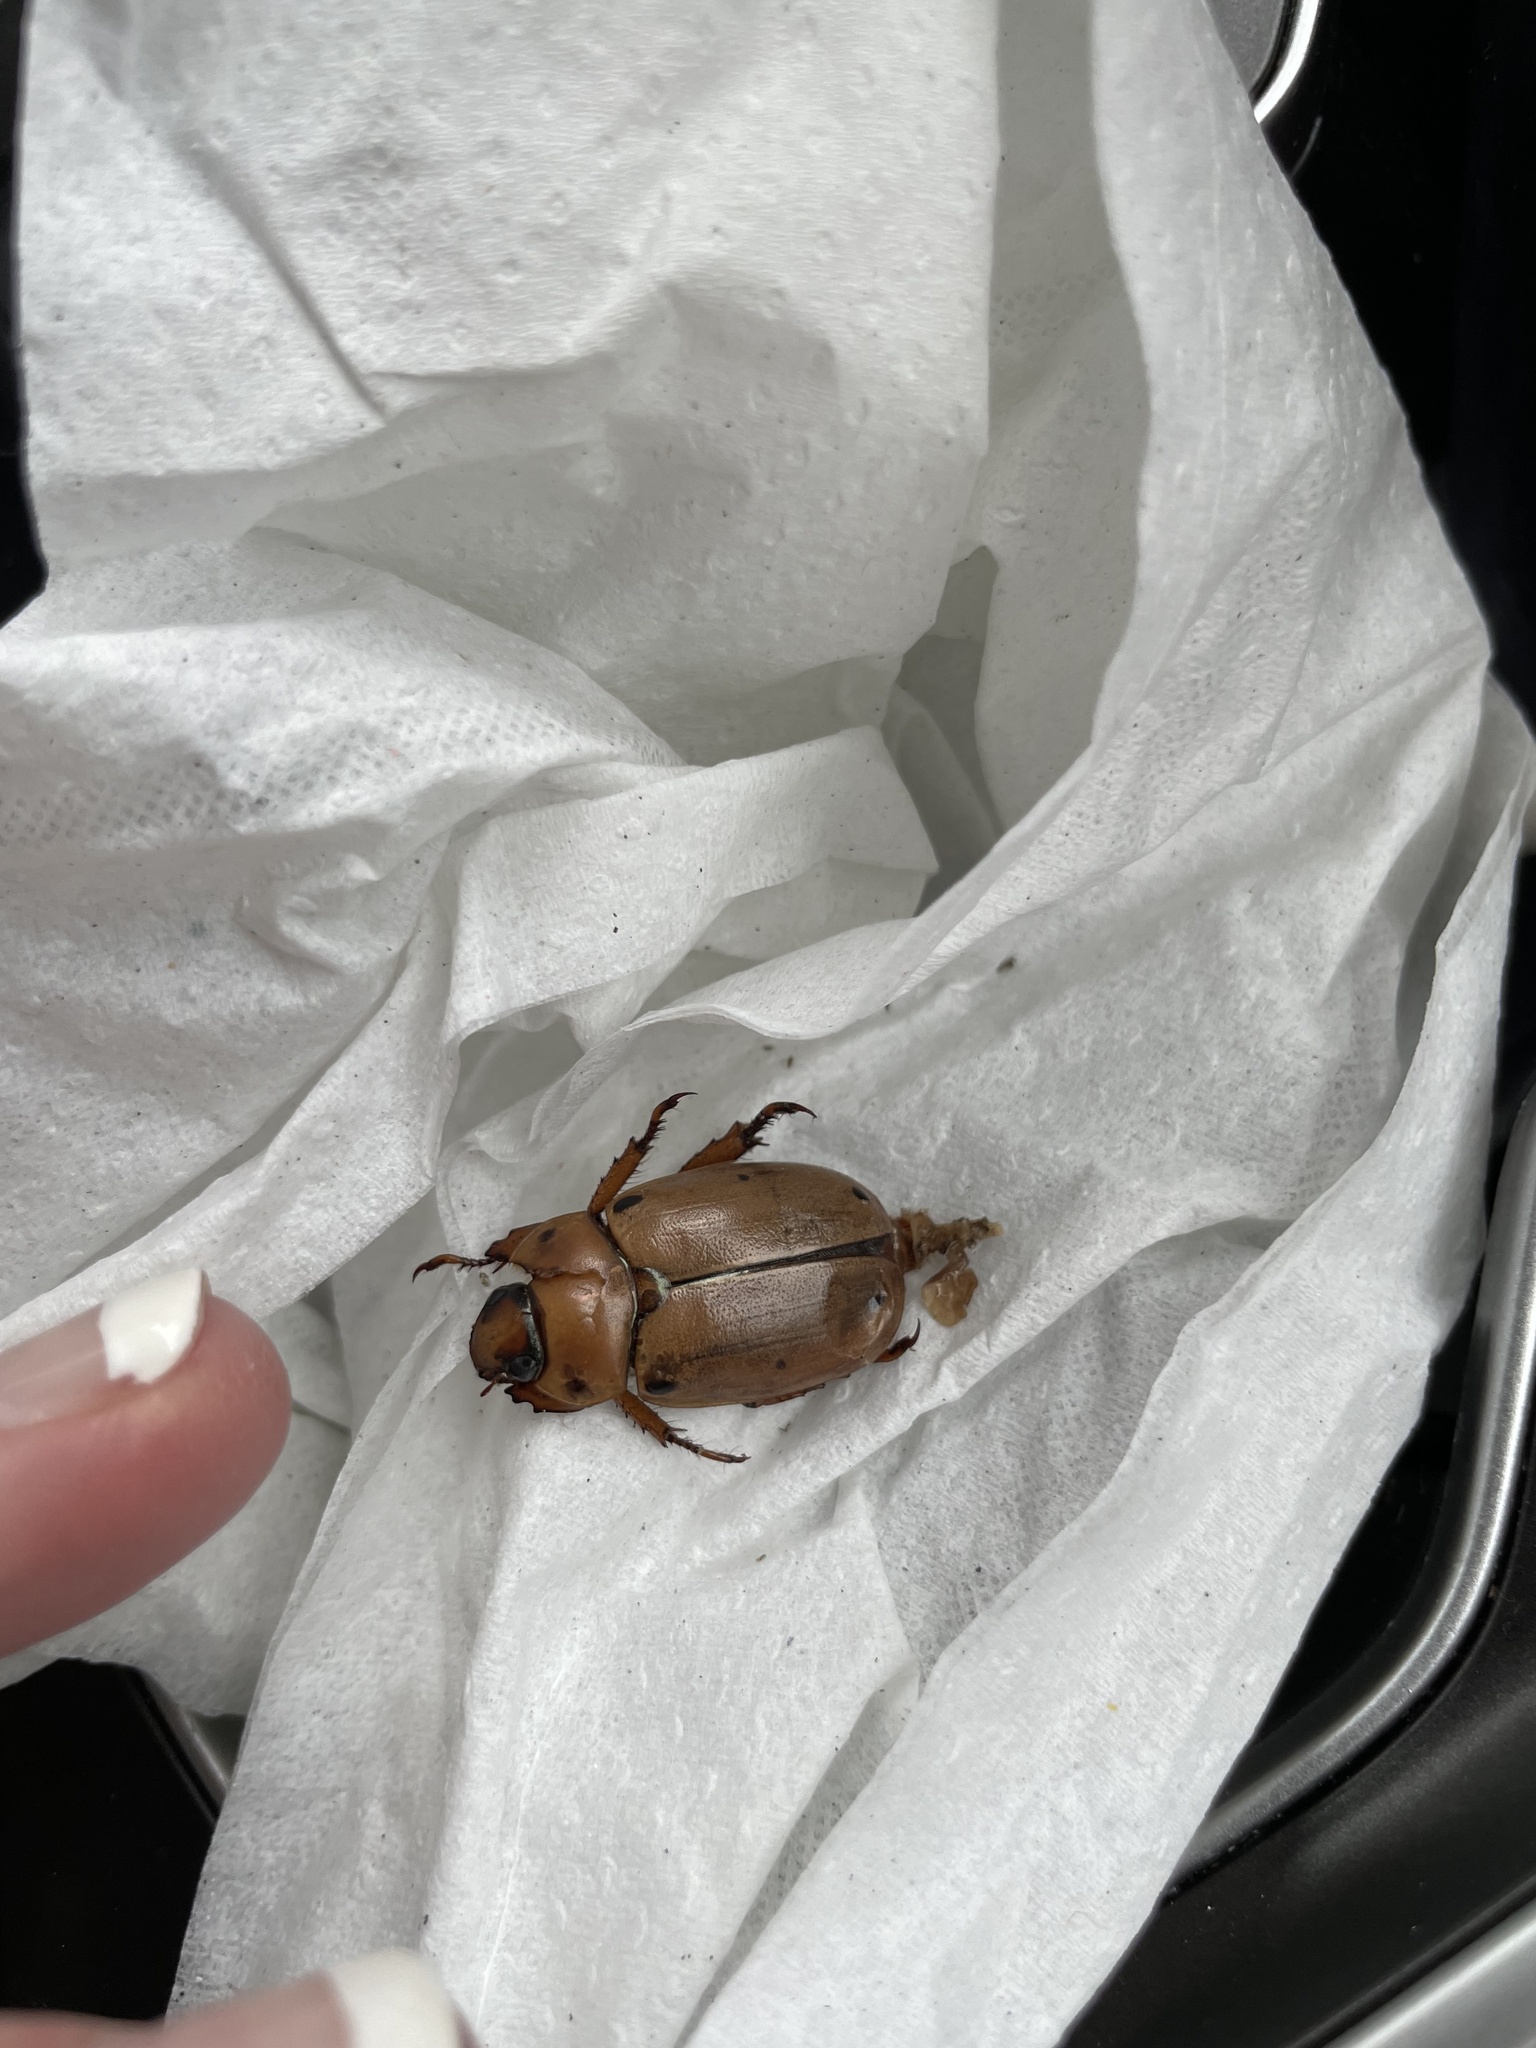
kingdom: Animalia
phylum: Arthropoda
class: Insecta
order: Coleoptera
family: Scarabaeidae
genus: Pelidnota
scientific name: Pelidnota punctata
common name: Grapevine beetle
